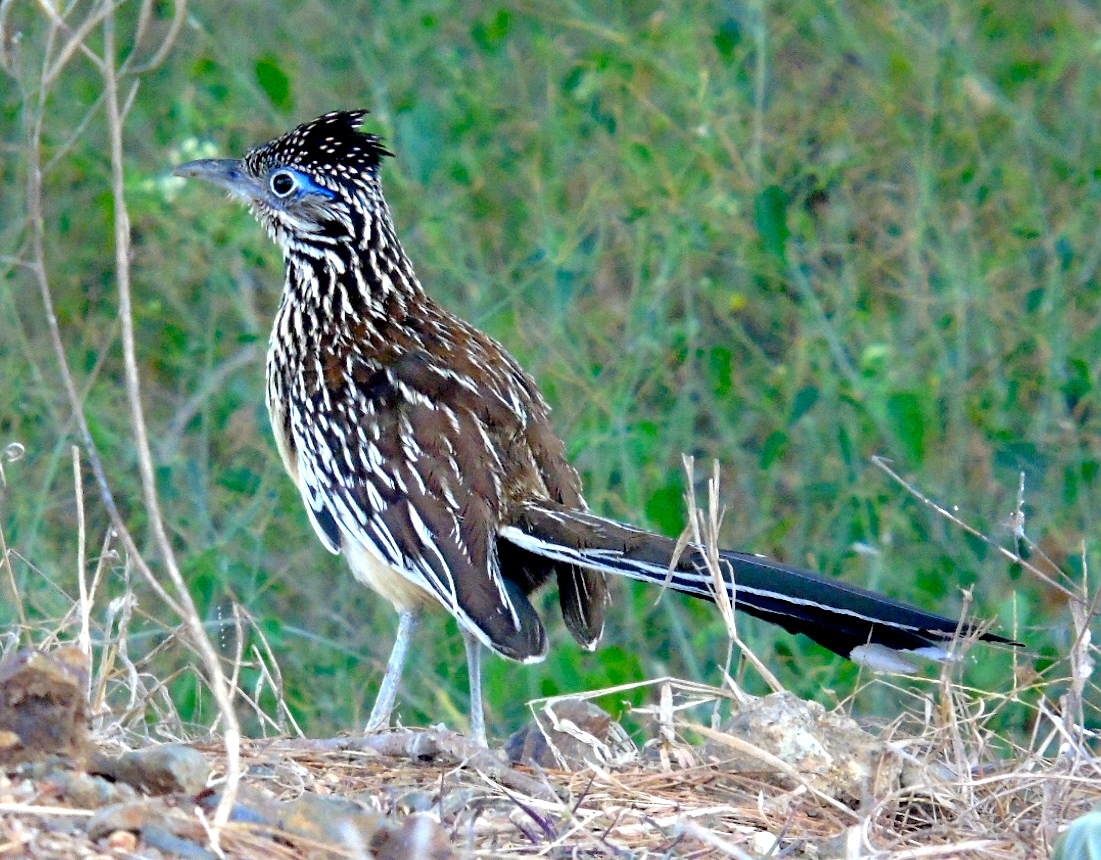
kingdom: Animalia
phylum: Chordata
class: Aves
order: Cuculiformes
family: Cuculidae
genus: Geococcyx
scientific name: Geococcyx velox
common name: Lesser roadrunner
